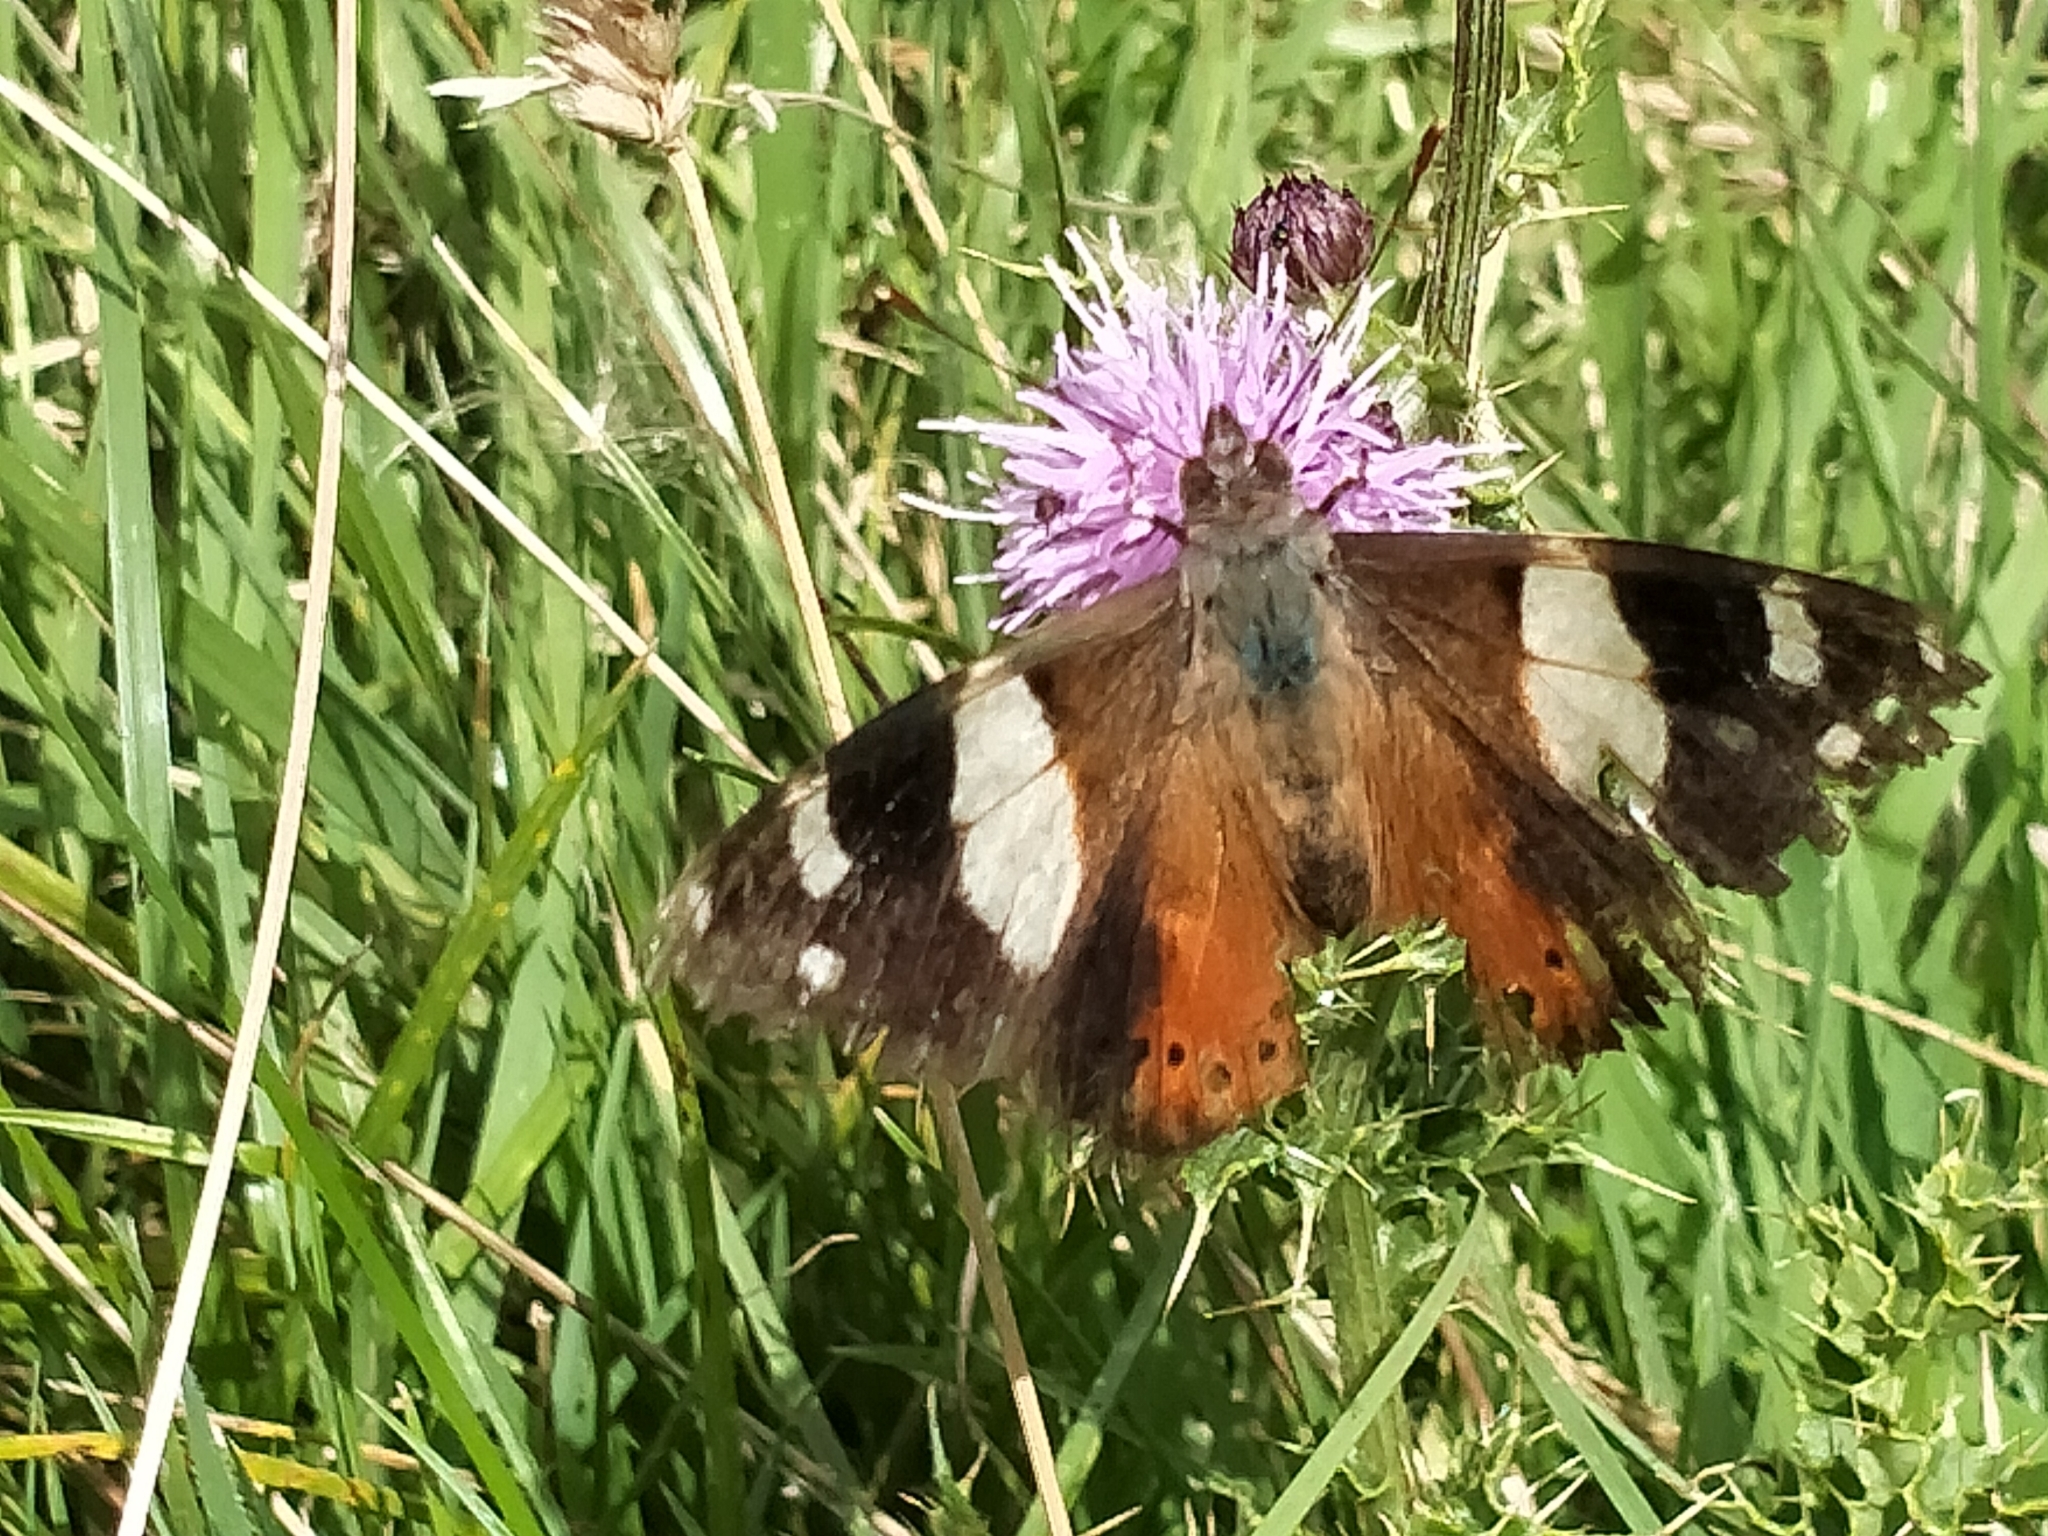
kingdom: Animalia
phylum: Arthropoda
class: Insecta
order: Lepidoptera
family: Nymphalidae
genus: Vanessa
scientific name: Vanessa itea
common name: Yellow admiral
